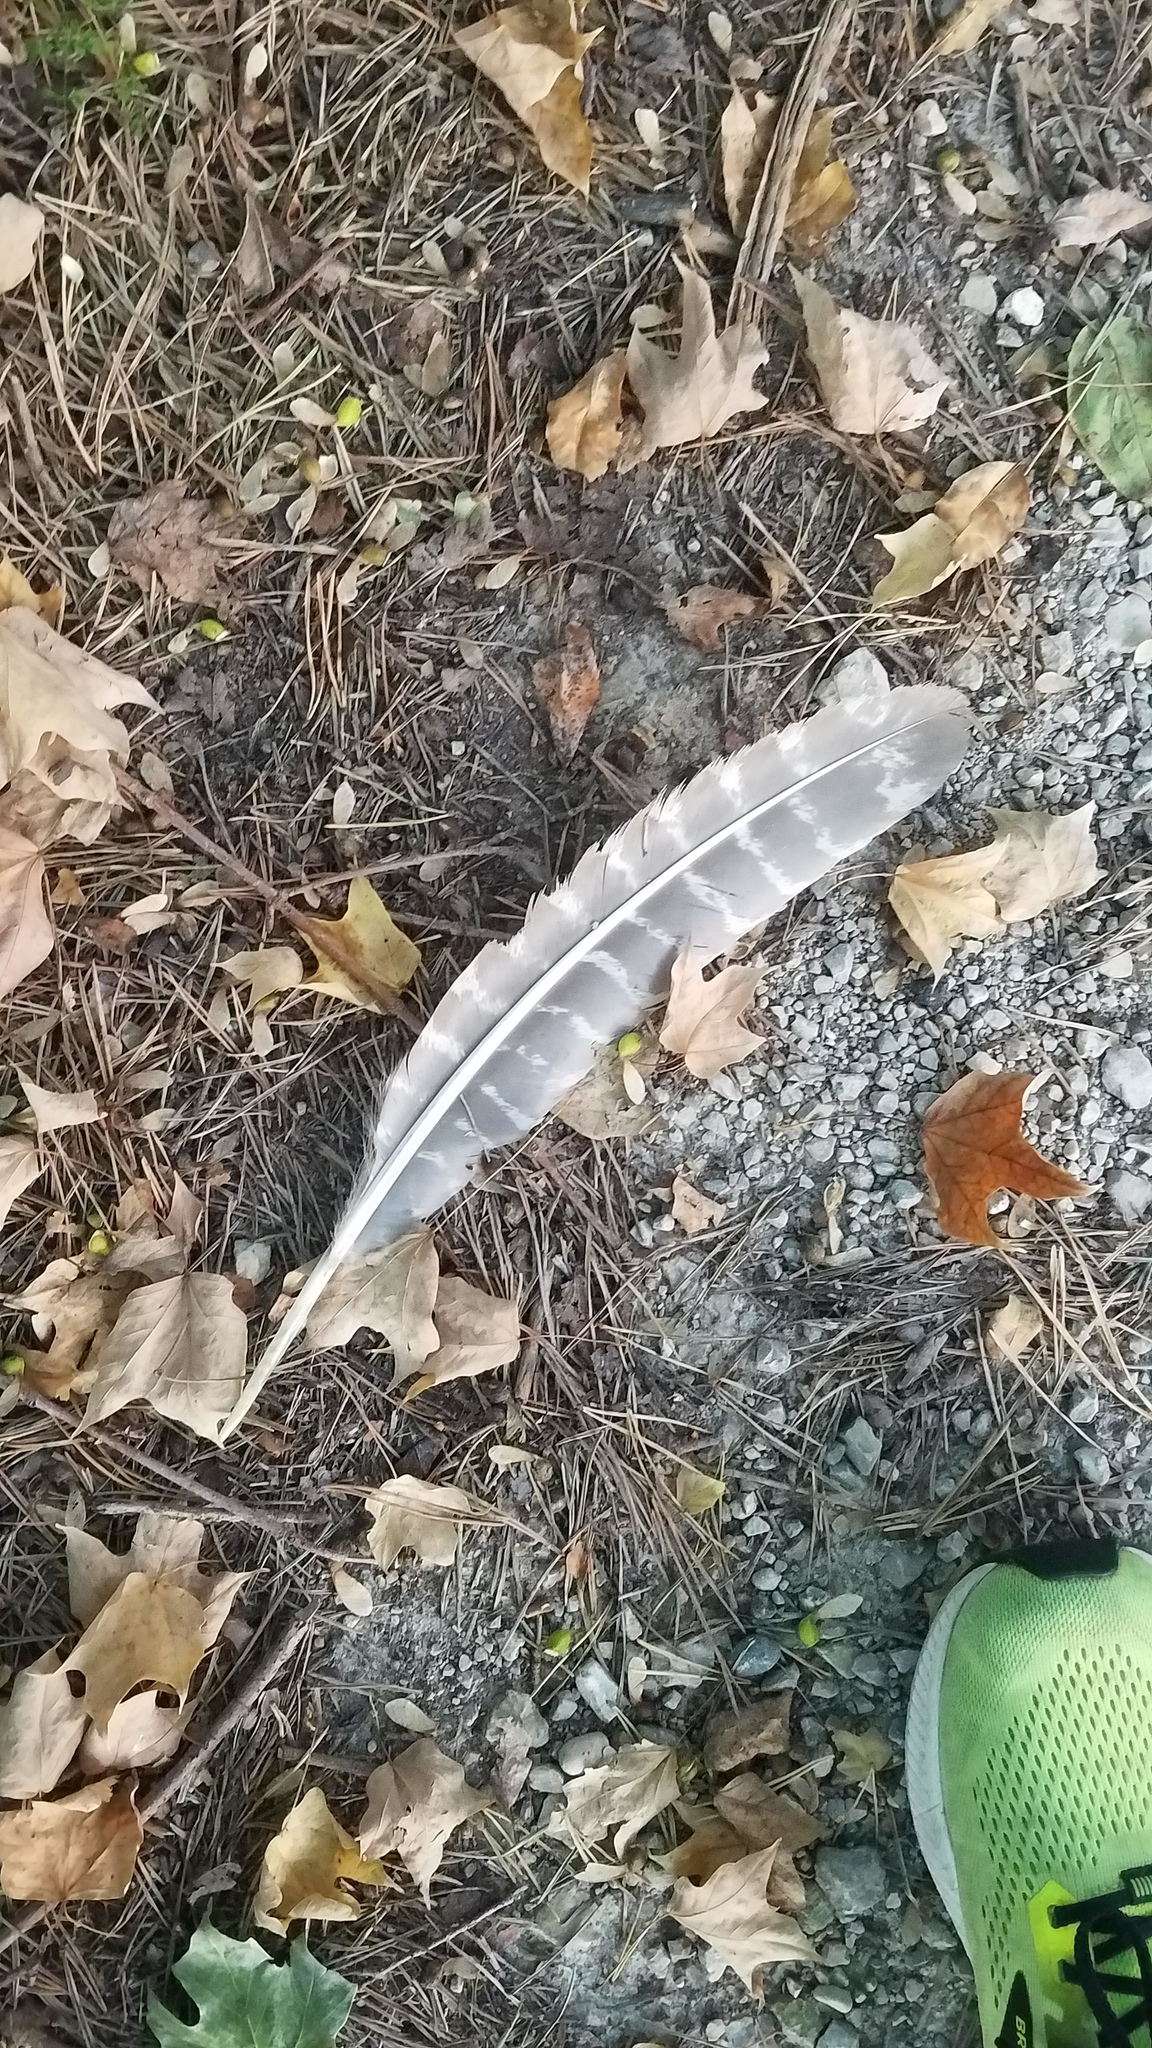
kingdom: Animalia
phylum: Chordata
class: Aves
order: Galliformes
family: Phasianidae
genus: Meleagris
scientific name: Meleagris gallopavo
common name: Wild turkey
